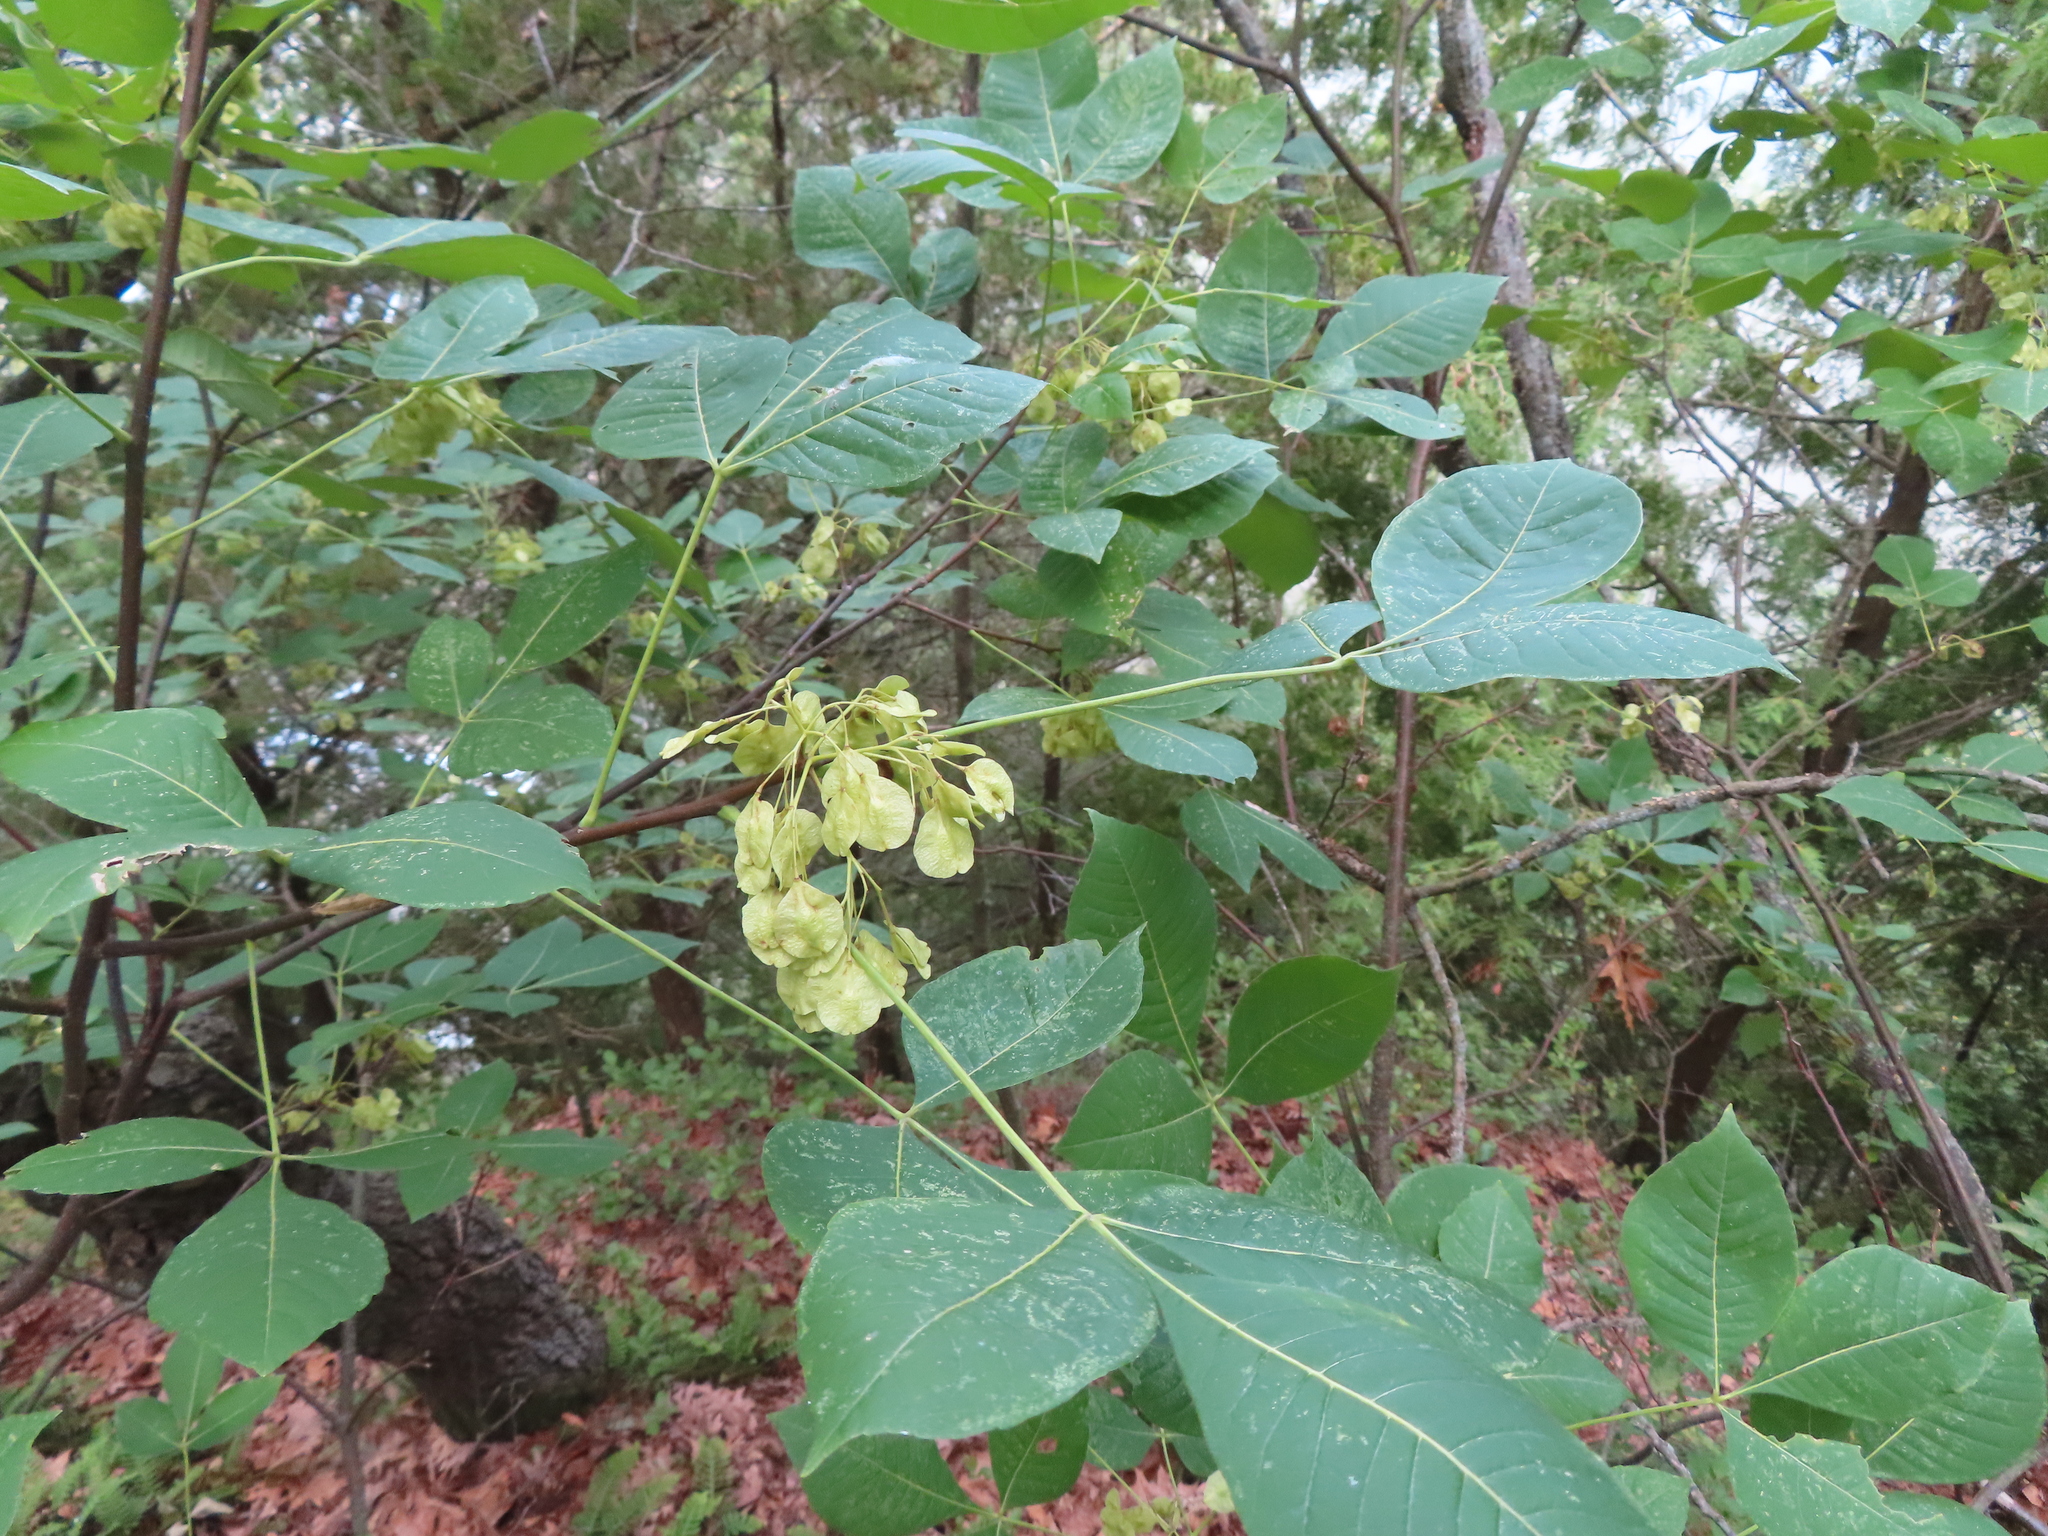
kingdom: Plantae
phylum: Tracheophyta
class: Magnoliopsida
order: Sapindales
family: Rutaceae
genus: Ptelea
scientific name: Ptelea trifoliata
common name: Common hop-tree
